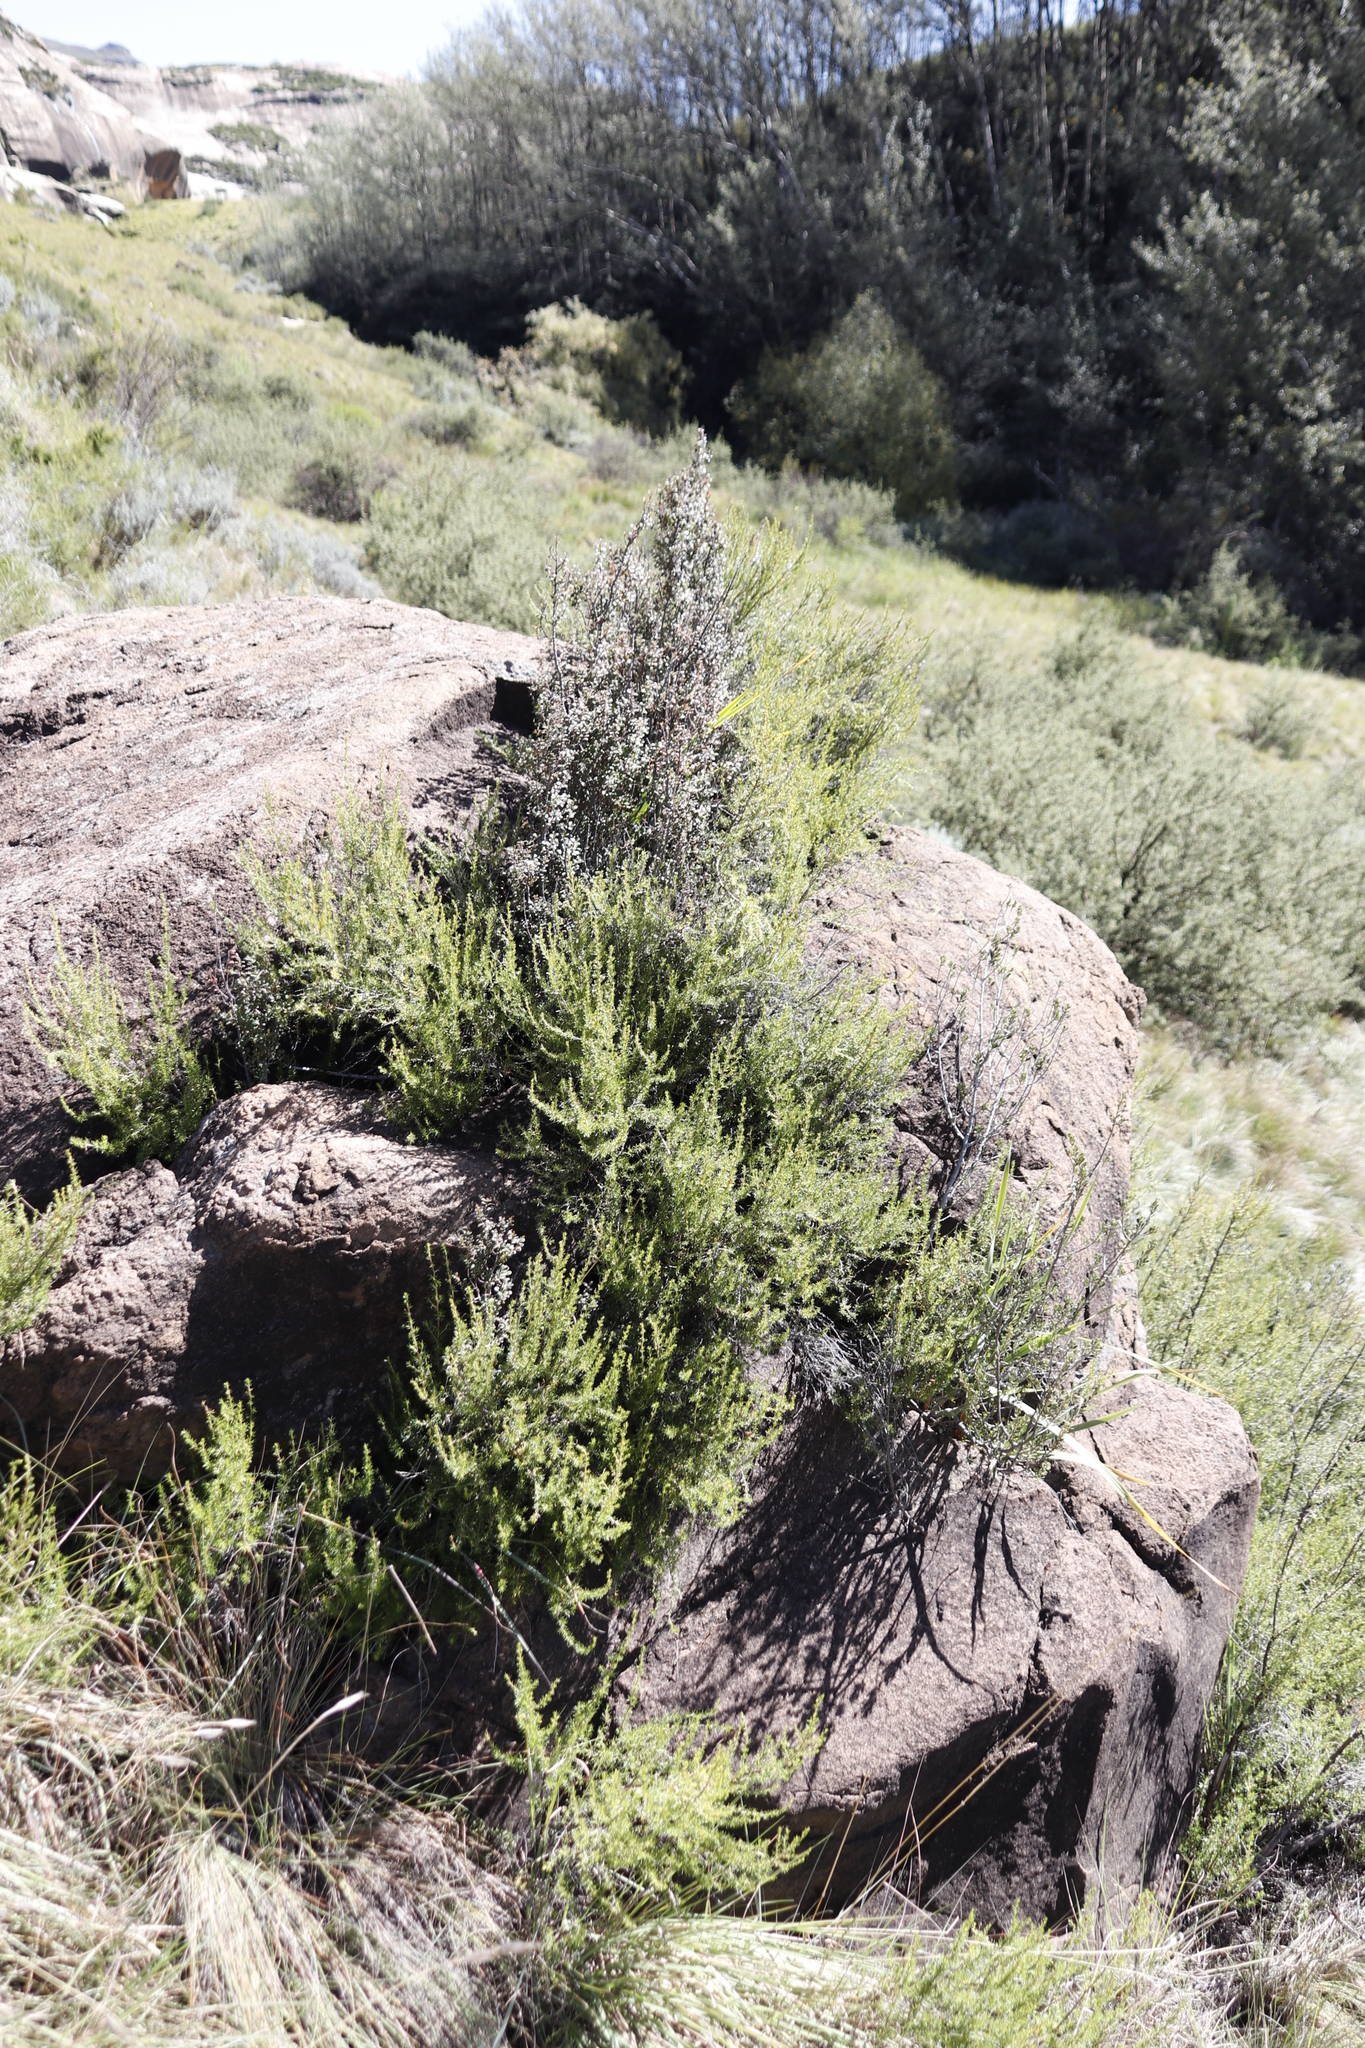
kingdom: Plantae
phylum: Tracheophyta
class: Magnoliopsida
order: Ericales
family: Primulaceae
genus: Myrsine
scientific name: Myrsine africana
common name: African-boxwood
